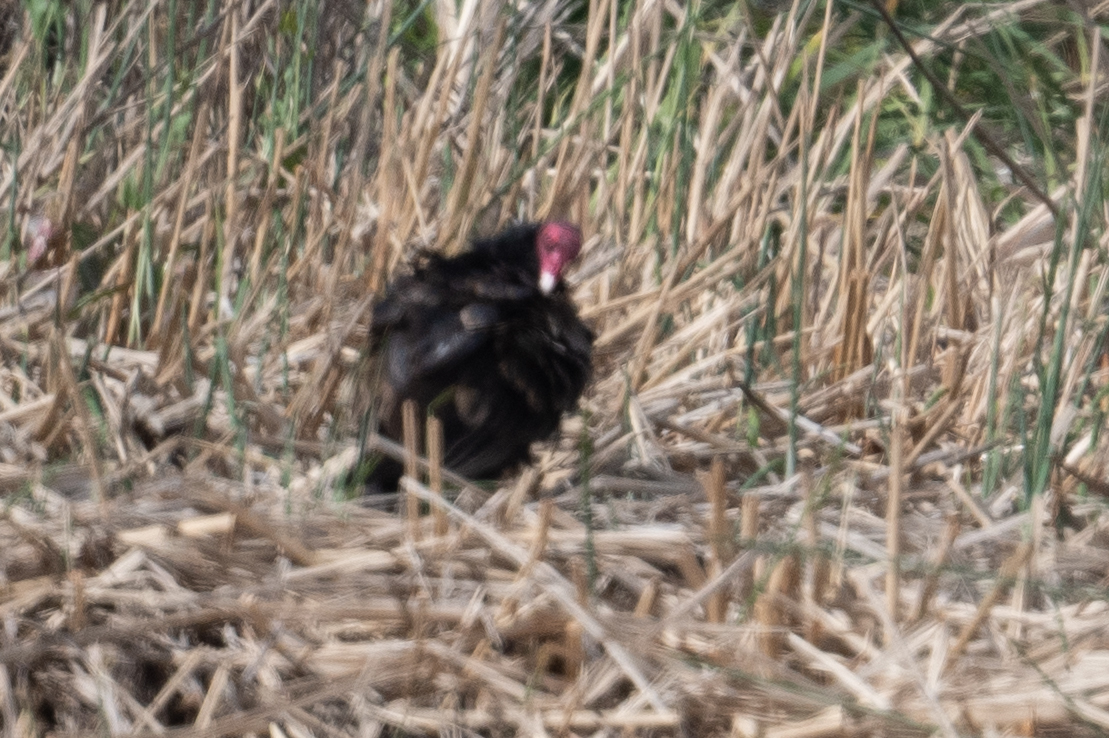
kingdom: Animalia
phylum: Chordata
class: Aves
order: Accipitriformes
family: Cathartidae
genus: Cathartes
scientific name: Cathartes aura
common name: Turkey vulture
